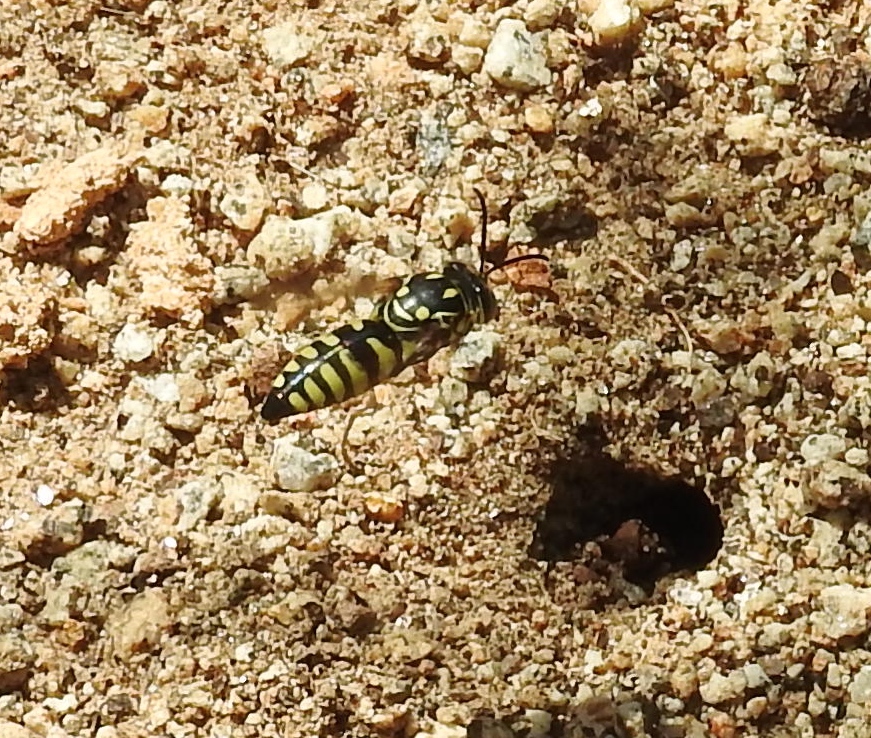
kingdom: Animalia
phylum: Arthropoda
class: Insecta
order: Hymenoptera
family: Crabronidae
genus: Bicyrtes
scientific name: Bicyrtes viduatus
